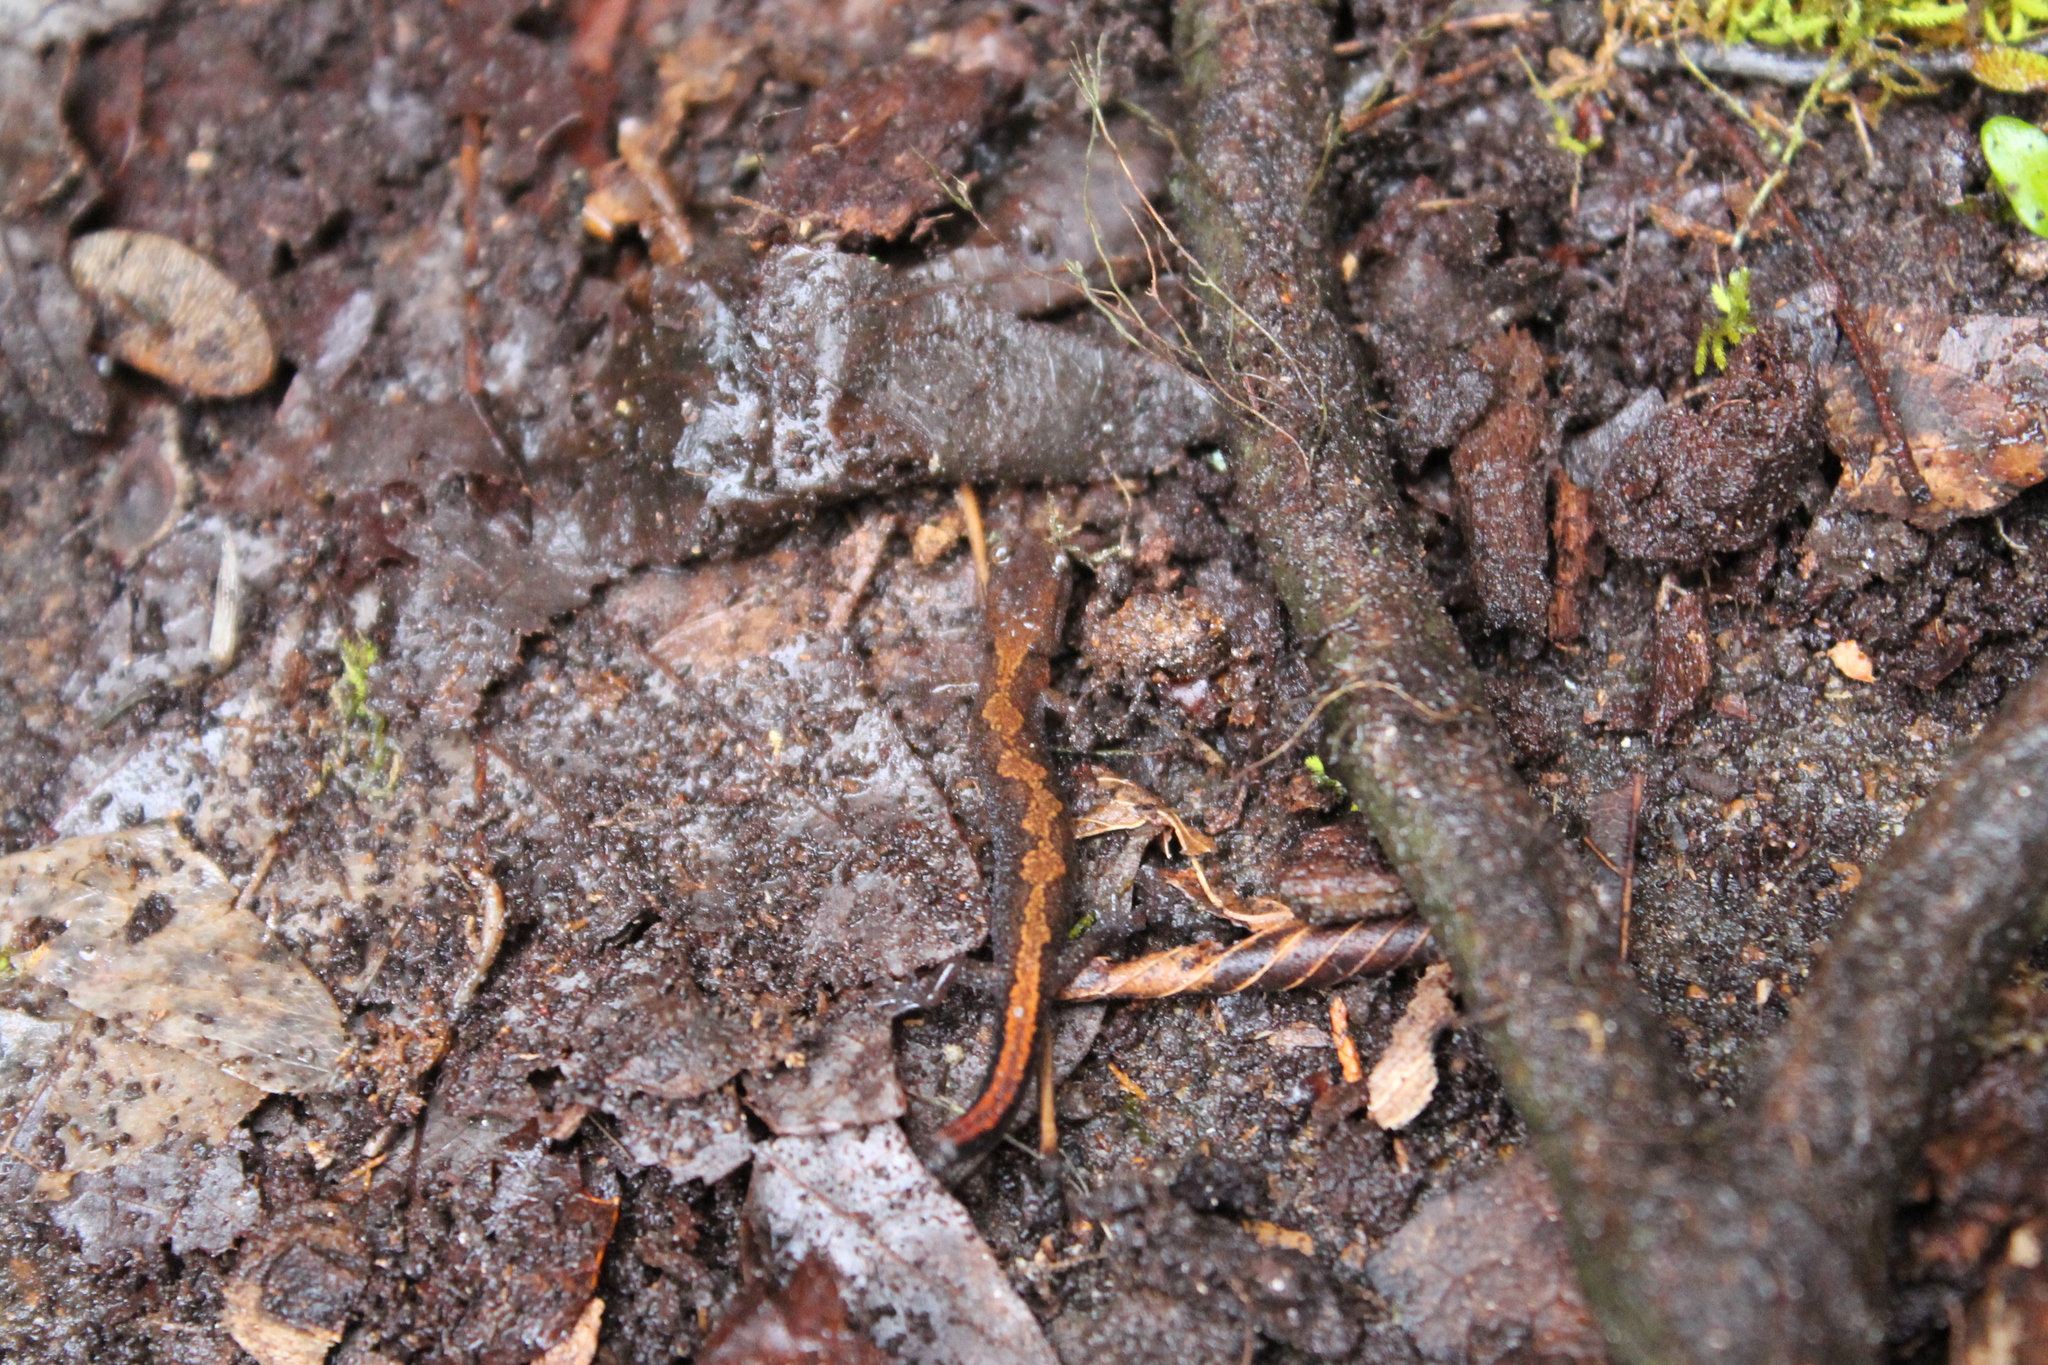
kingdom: Animalia
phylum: Chordata
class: Amphibia
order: Caudata
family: Plethodontidae
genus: Plethodon
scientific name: Plethodon dorsalis
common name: Northern zigzag salamander
